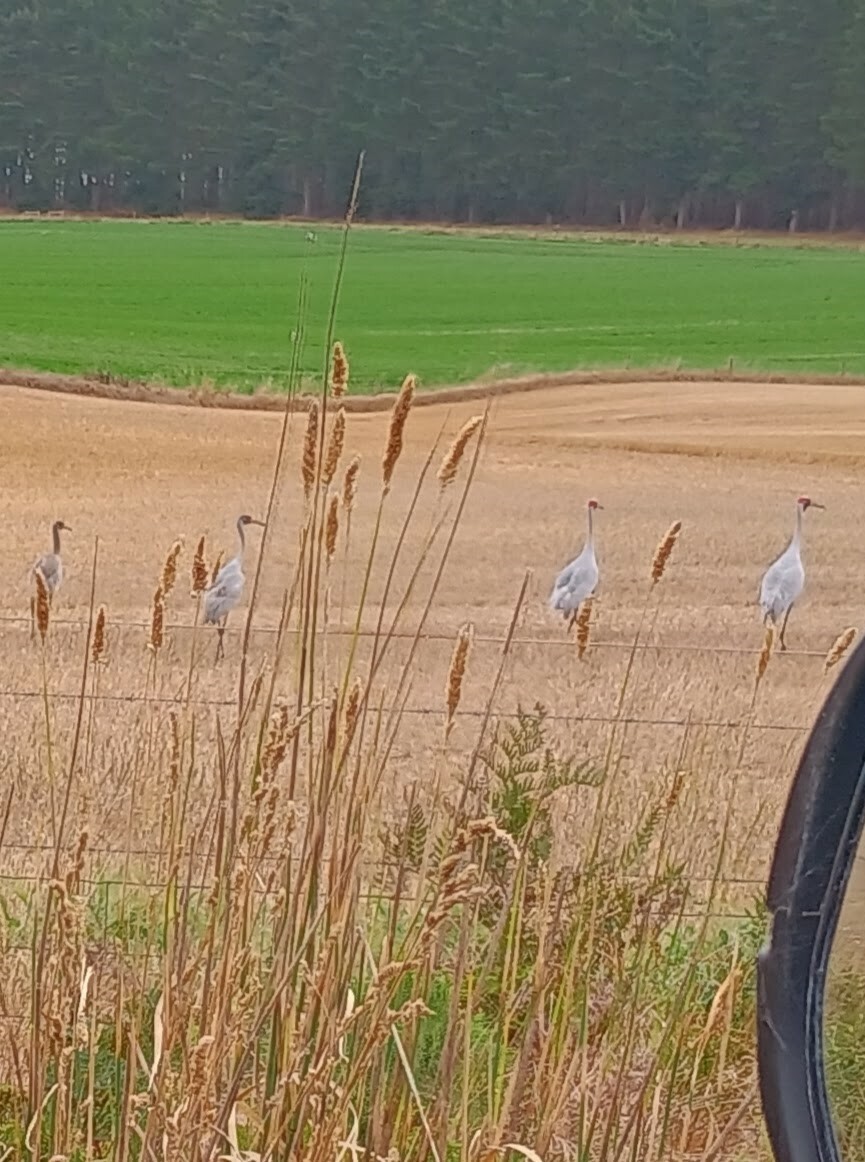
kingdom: Animalia
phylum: Chordata
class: Aves
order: Gruiformes
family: Gruidae
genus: Grus
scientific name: Grus rubicunda
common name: Brolga
